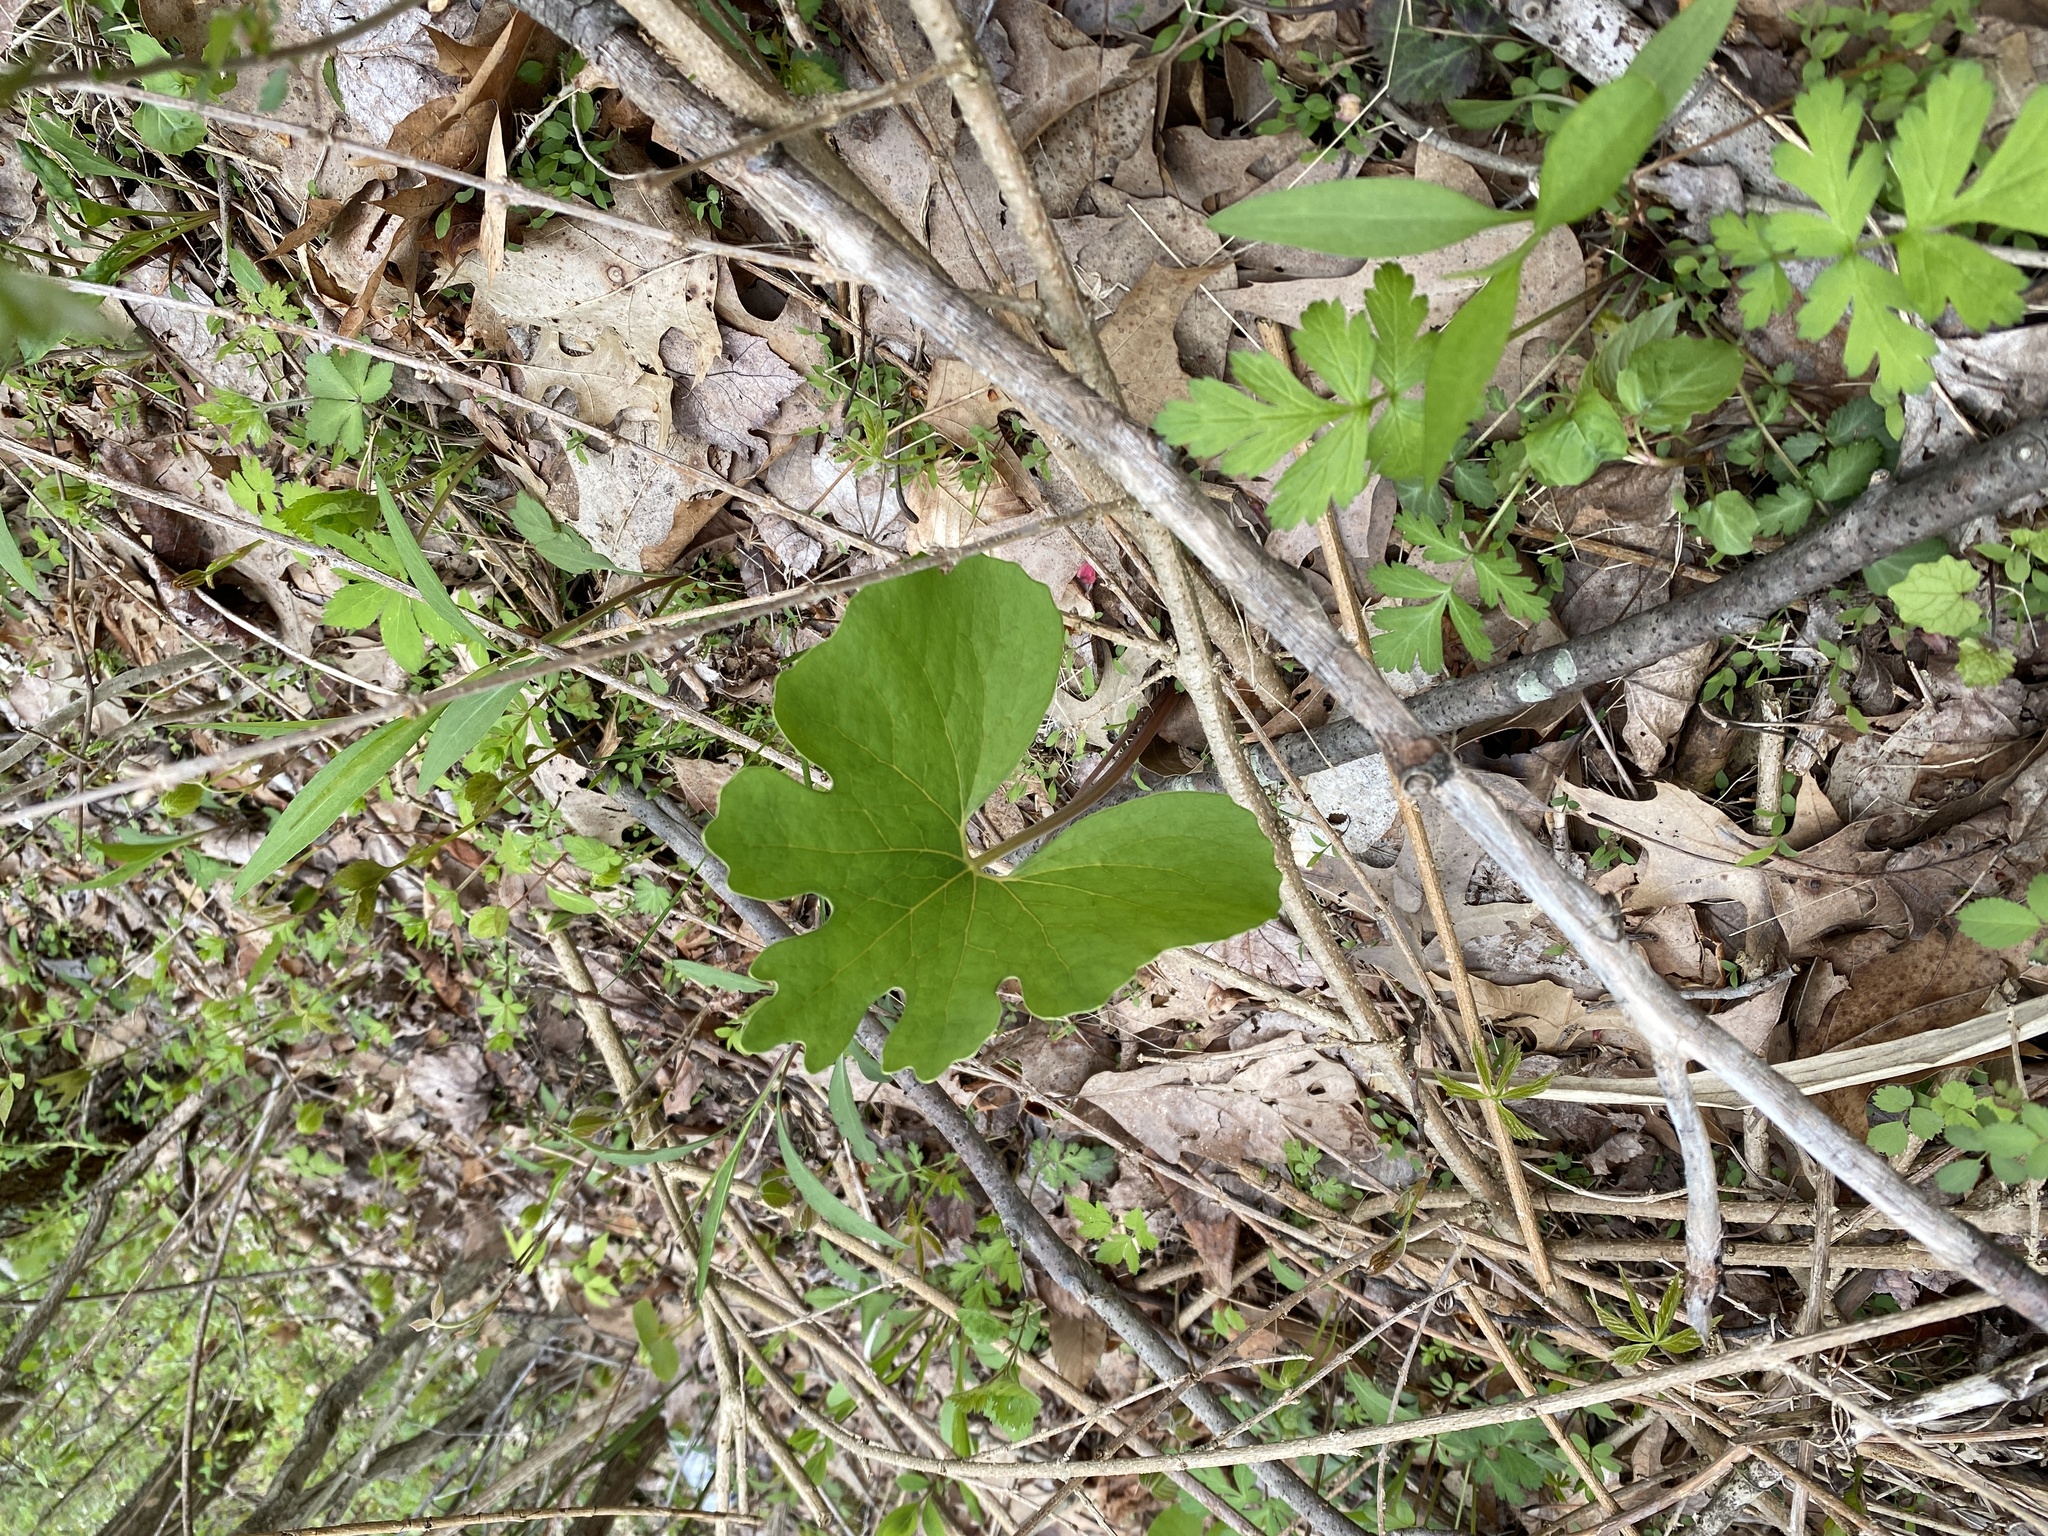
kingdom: Plantae
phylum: Tracheophyta
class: Magnoliopsida
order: Ranunculales
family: Papaveraceae
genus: Sanguinaria
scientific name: Sanguinaria canadensis
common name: Bloodroot
